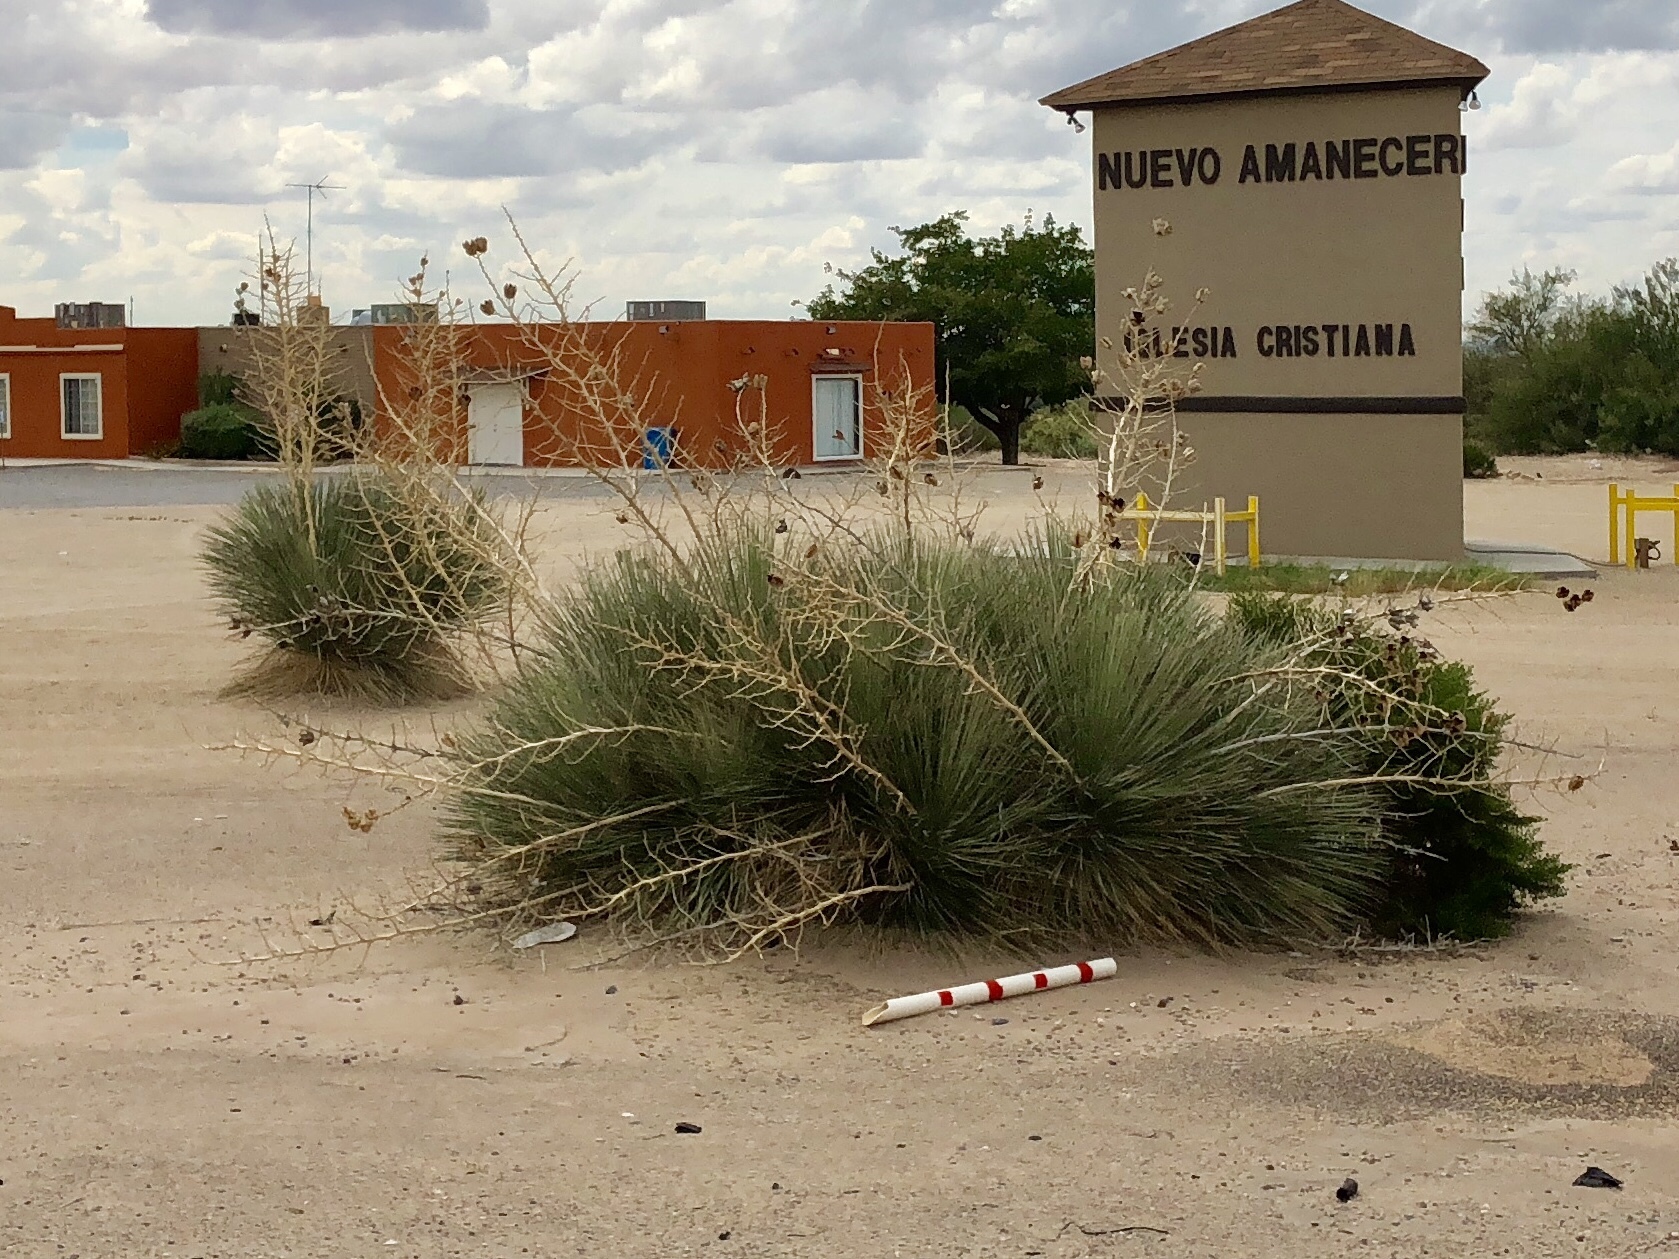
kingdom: Plantae
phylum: Tracheophyta
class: Liliopsida
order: Asparagales
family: Asparagaceae
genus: Yucca
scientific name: Yucca elata
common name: Palmella
